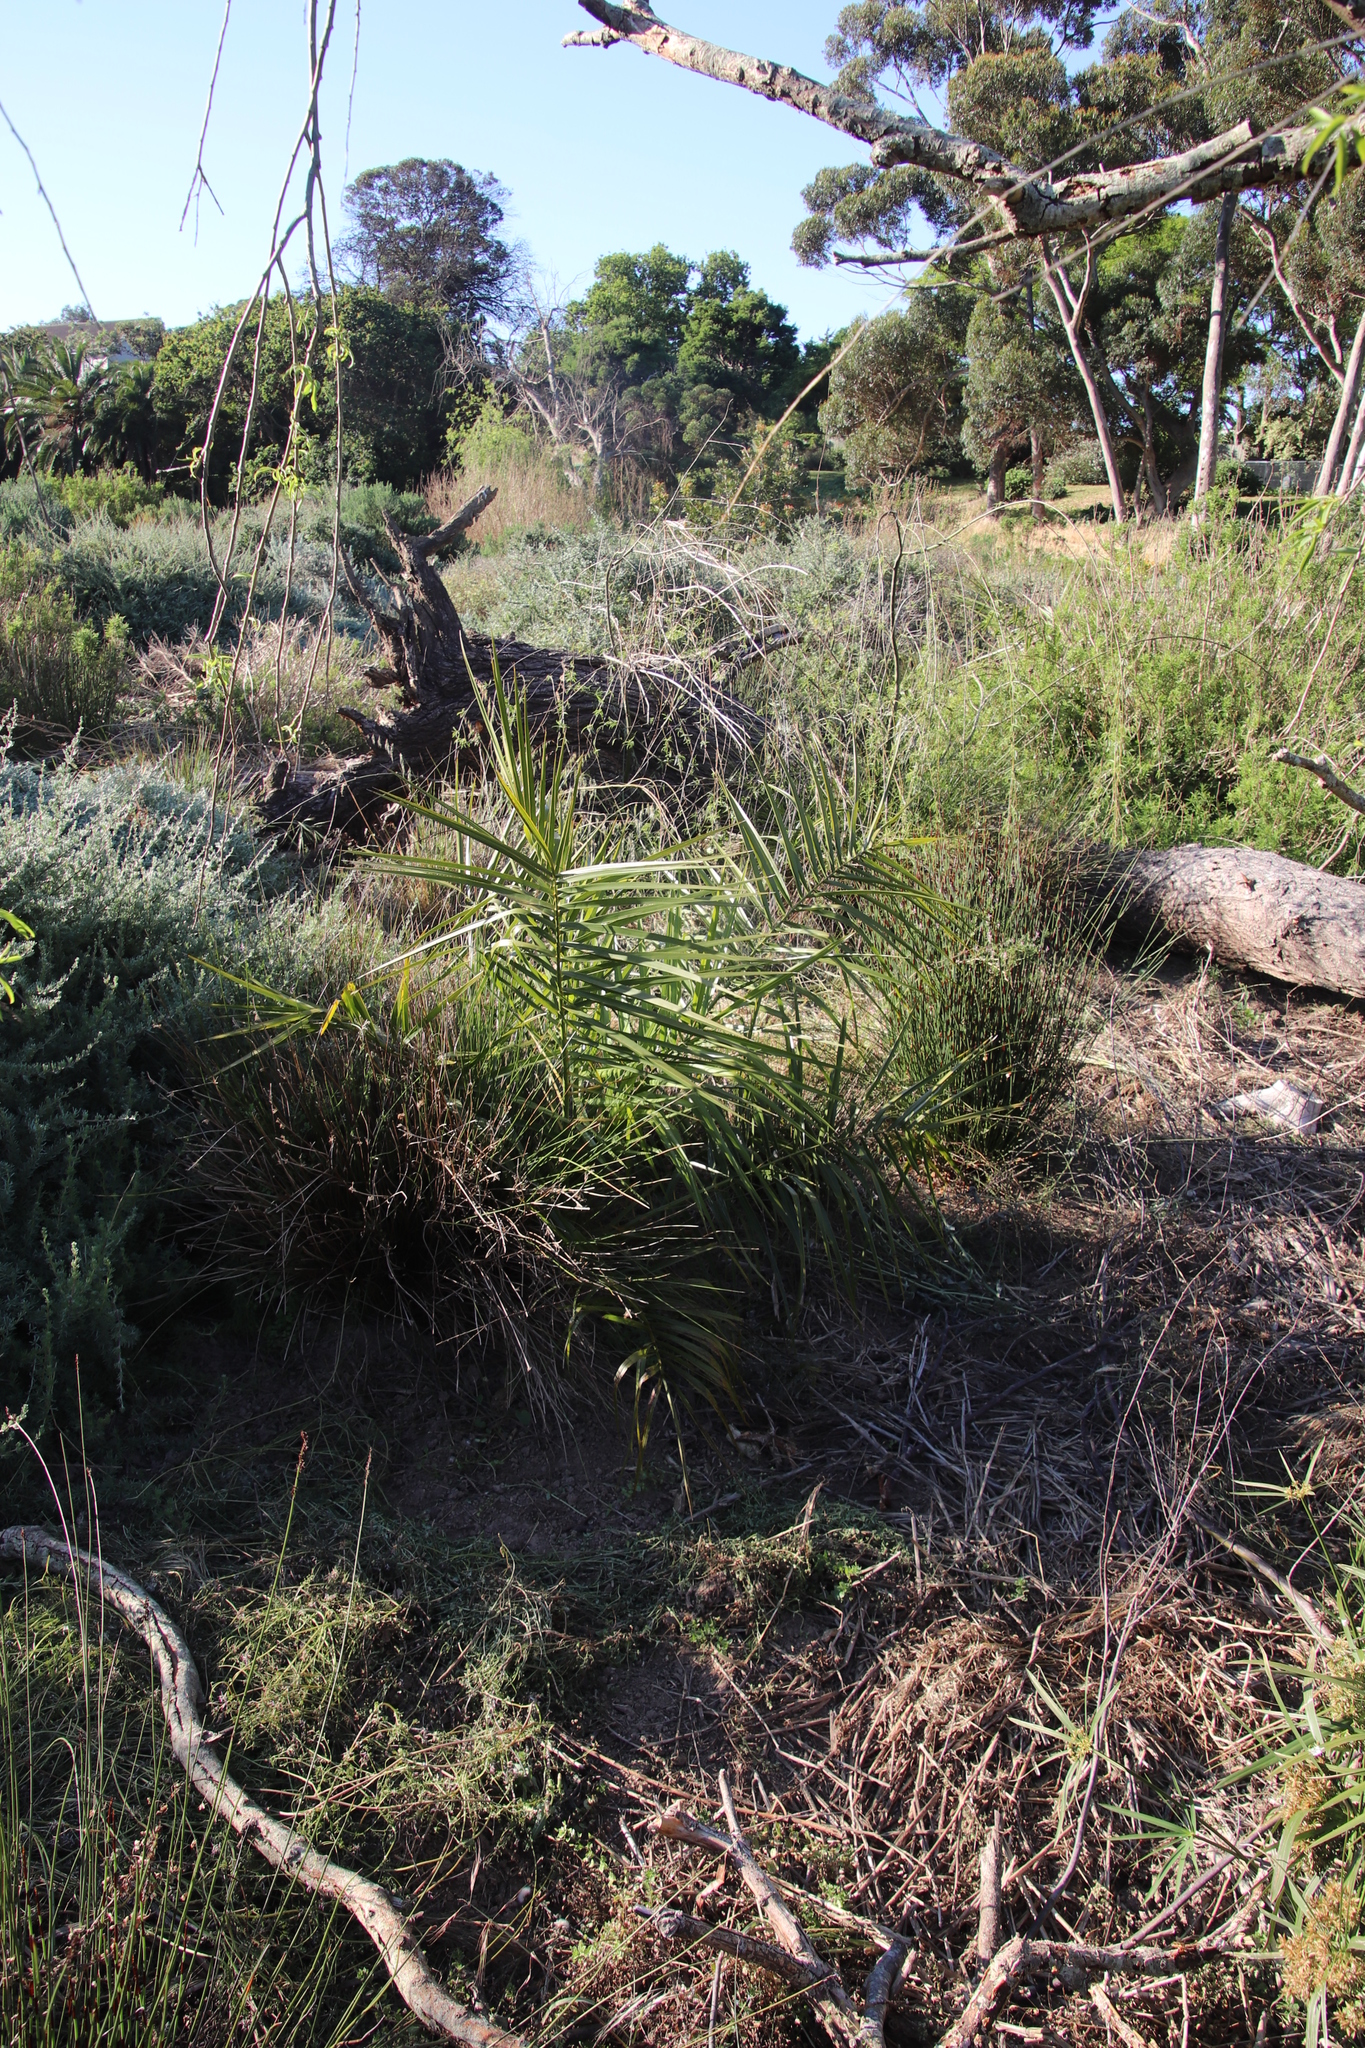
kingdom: Plantae
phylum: Tracheophyta
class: Liliopsida
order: Arecales
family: Arecaceae
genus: Phoenix
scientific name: Phoenix reclinata
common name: Senegal date palm
